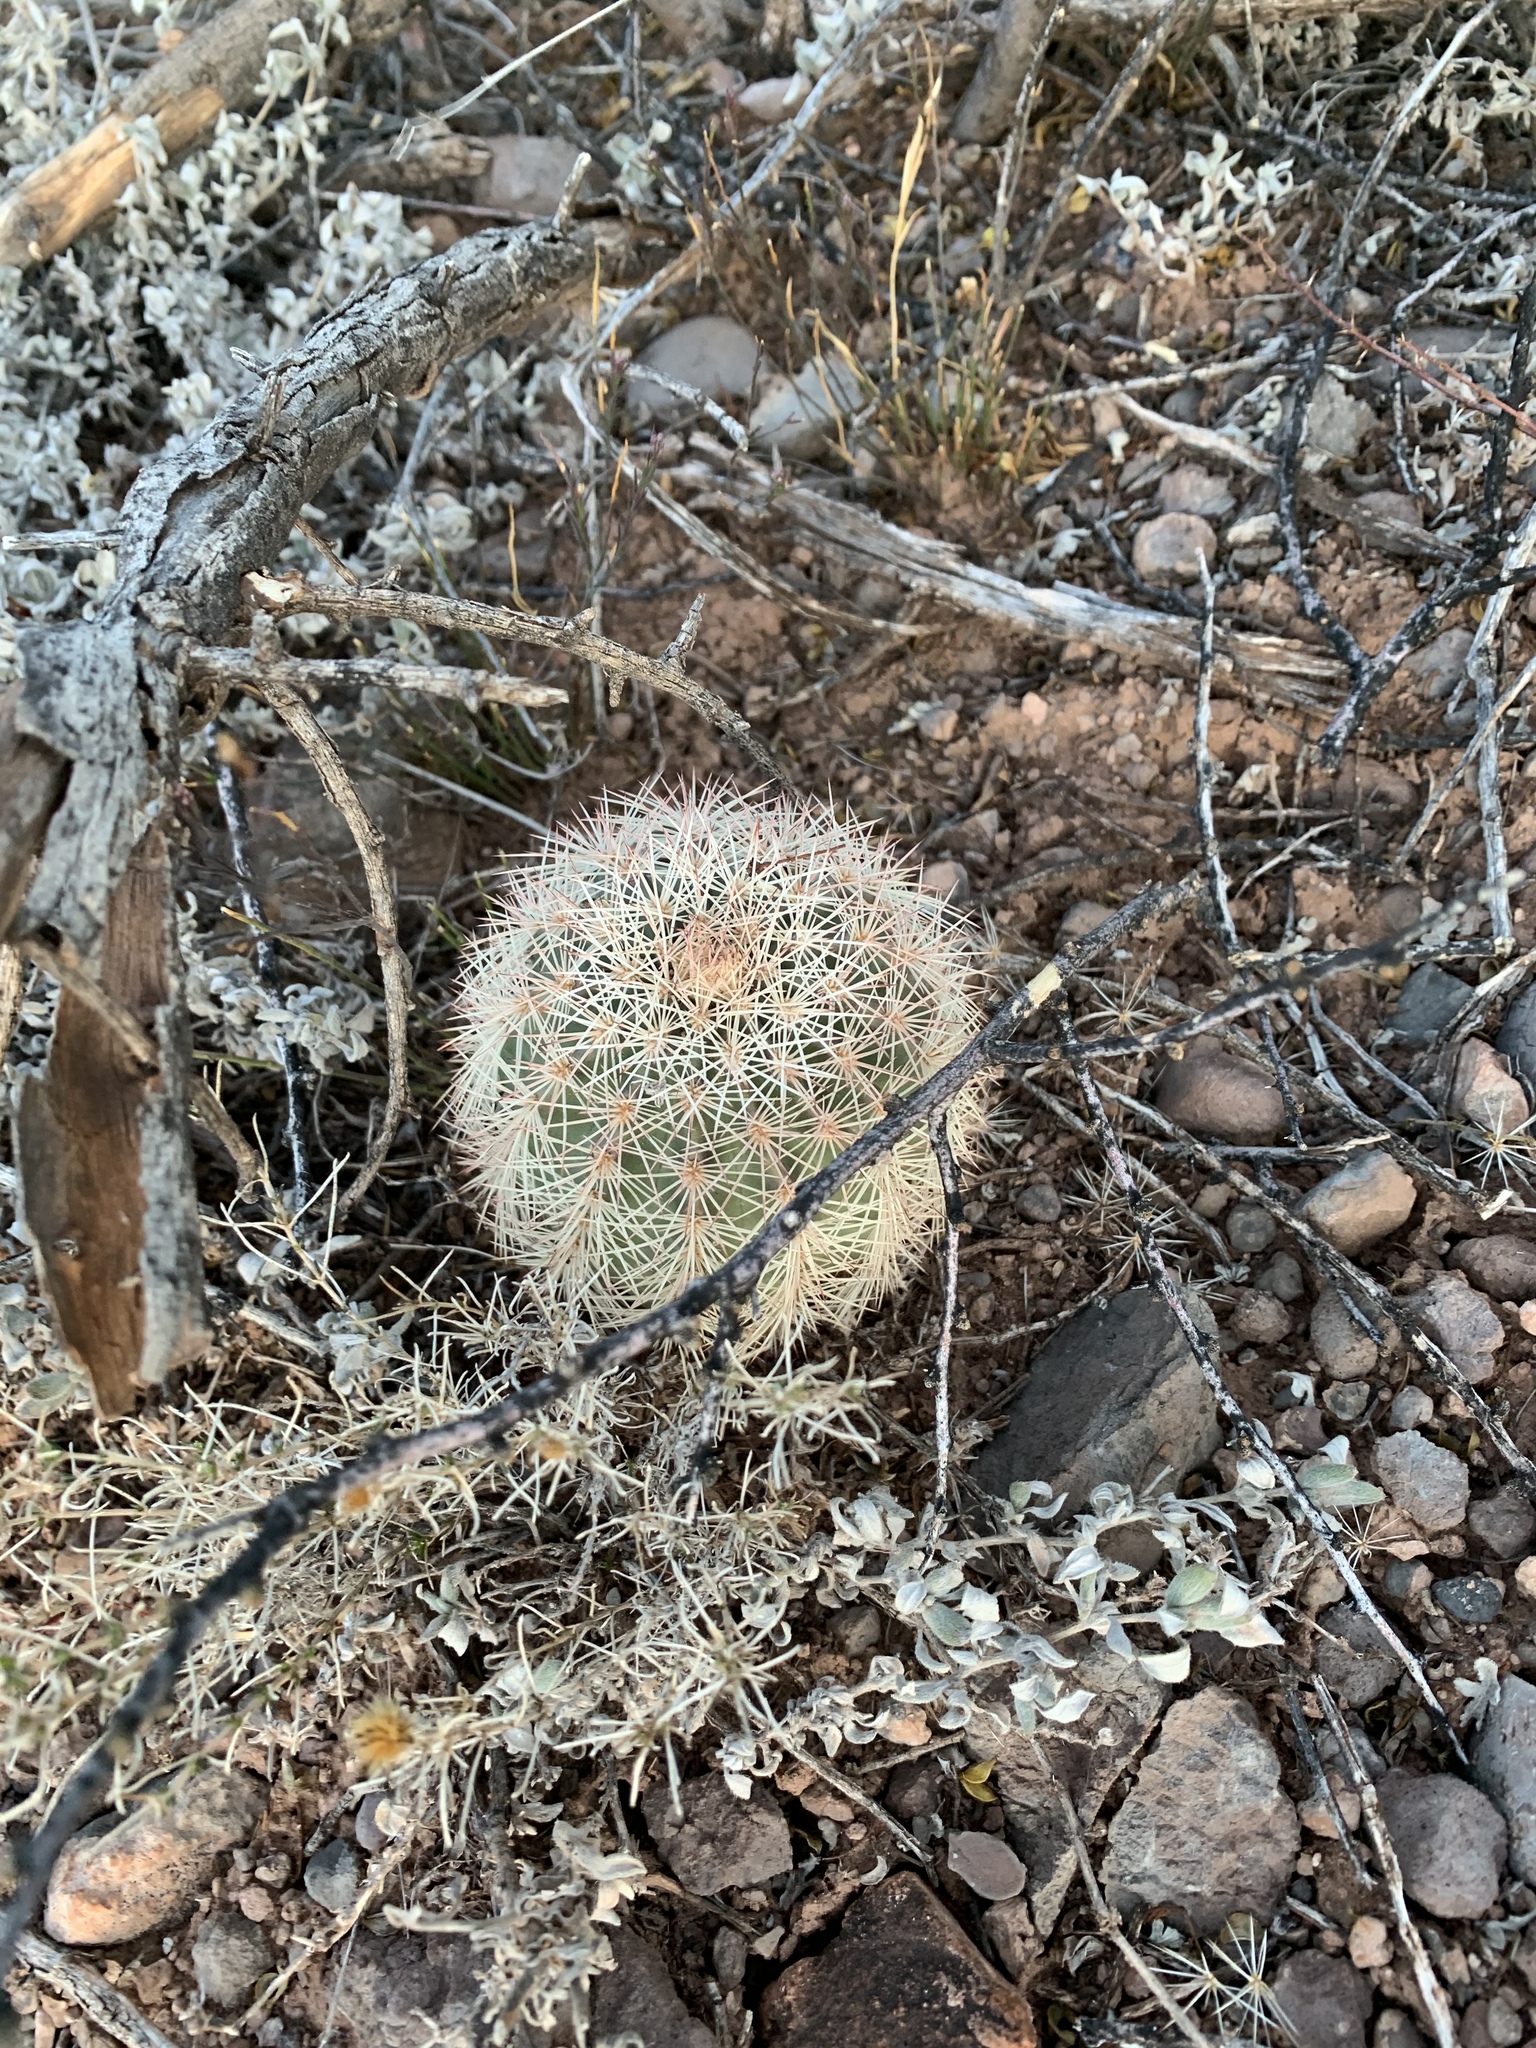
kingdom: Plantae
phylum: Tracheophyta
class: Magnoliopsida
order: Caryophyllales
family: Cactaceae
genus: Echinocereus
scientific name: Echinocereus dasyacanthus
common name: Spiny hedgehog cactus
